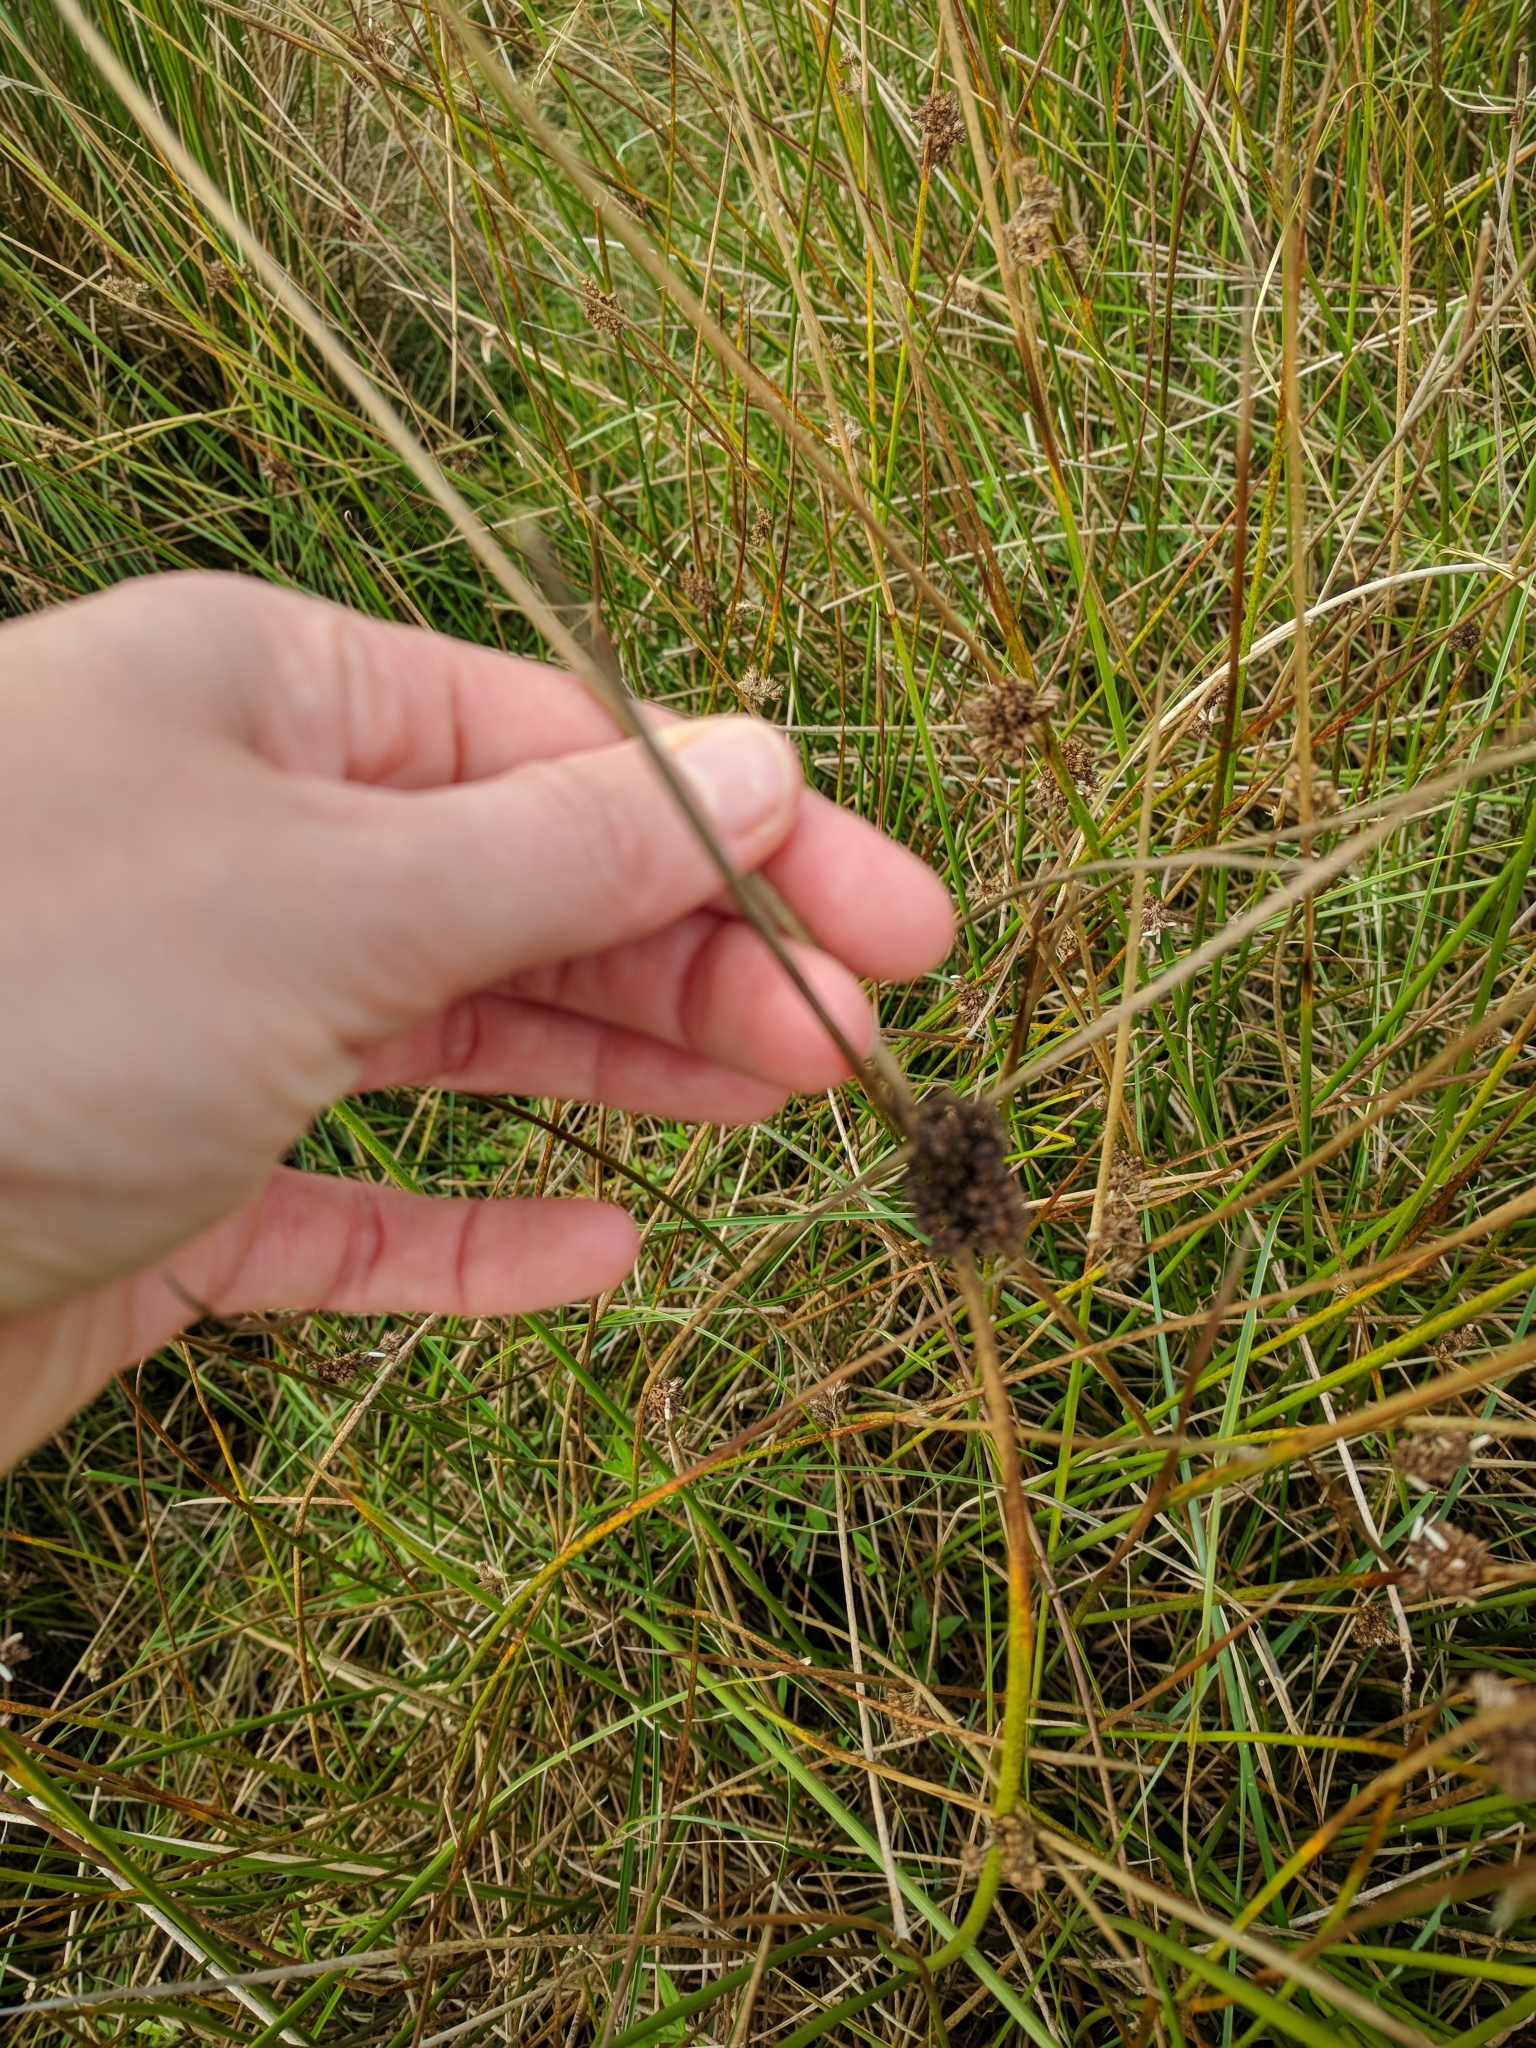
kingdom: Plantae
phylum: Tracheophyta
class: Liliopsida
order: Poales
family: Juncaceae
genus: Juncus
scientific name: Juncus effusus
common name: Soft rush
